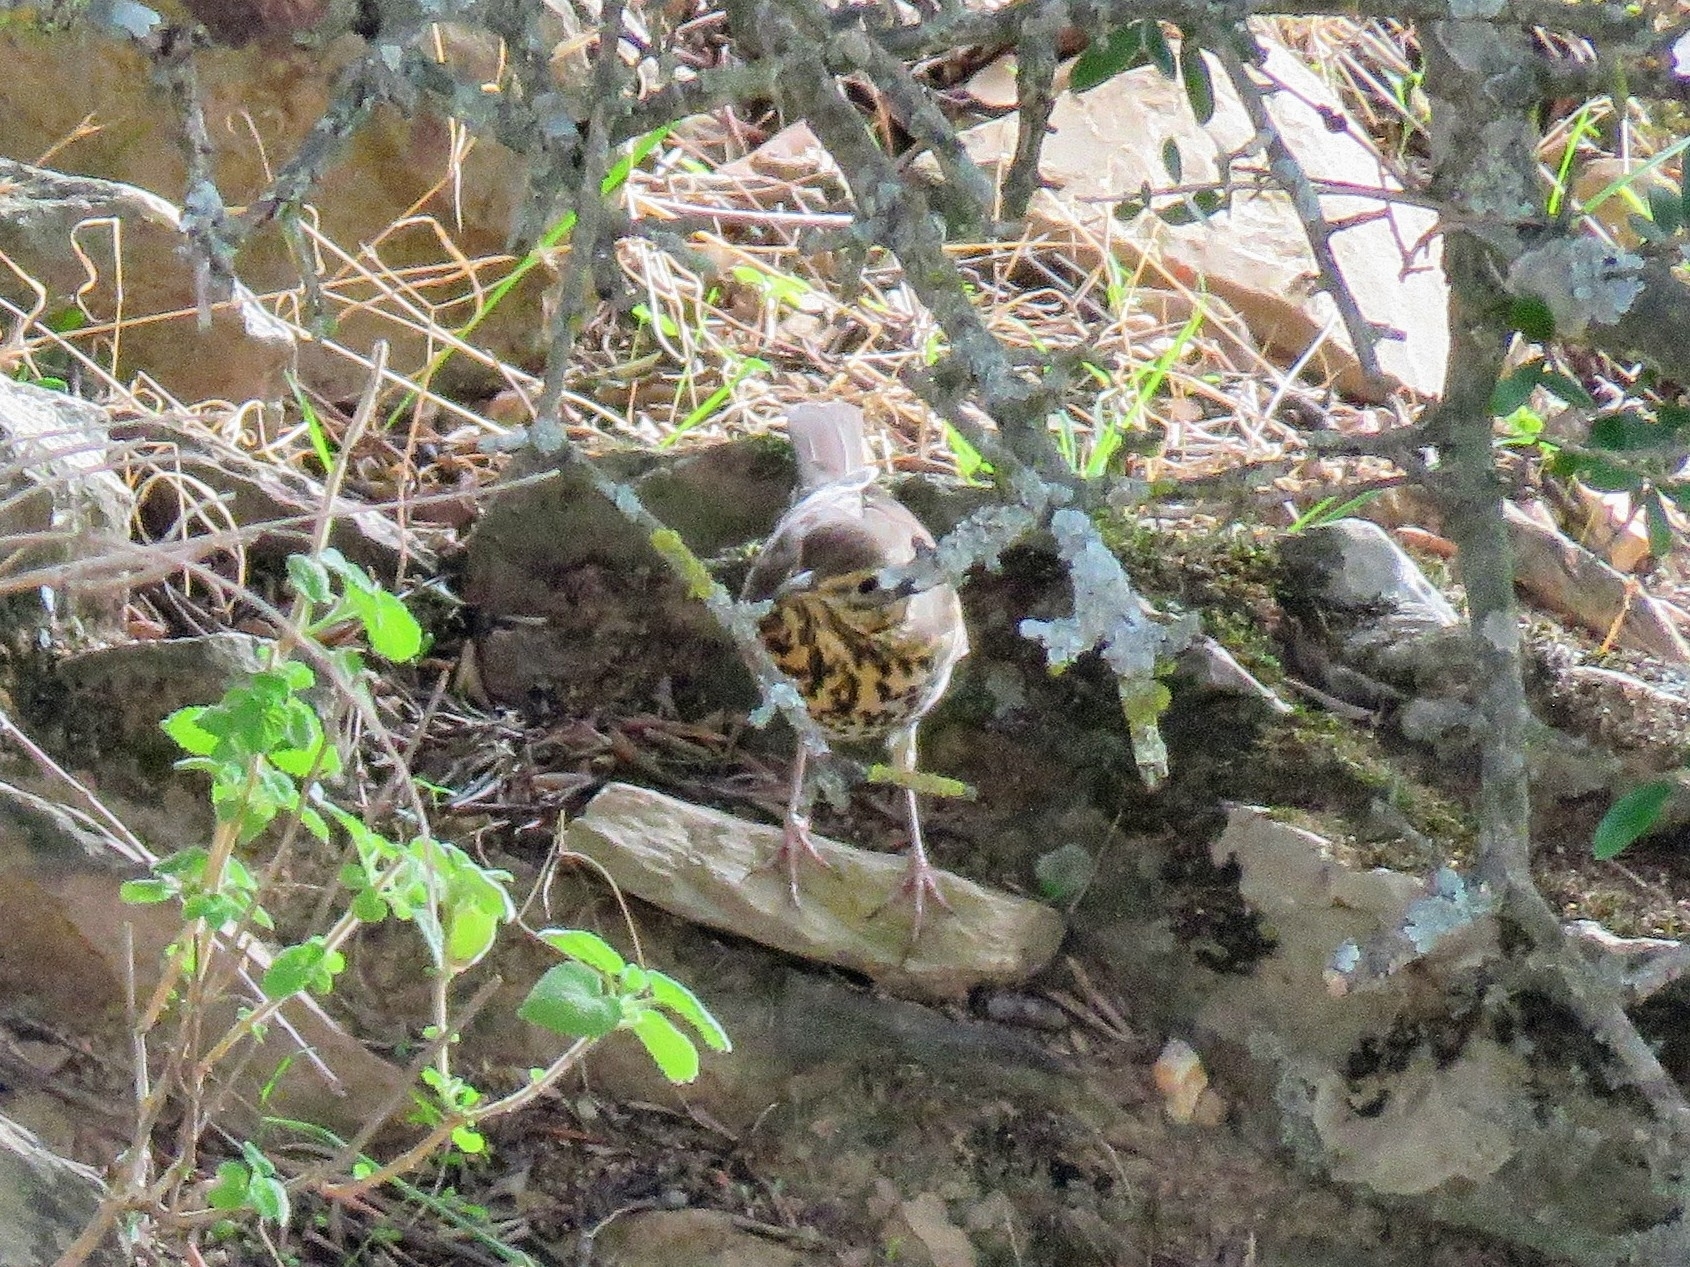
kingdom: Animalia
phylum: Chordata
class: Aves
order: Passeriformes
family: Turdidae
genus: Turdus
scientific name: Turdus philomelos
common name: Song thrush
